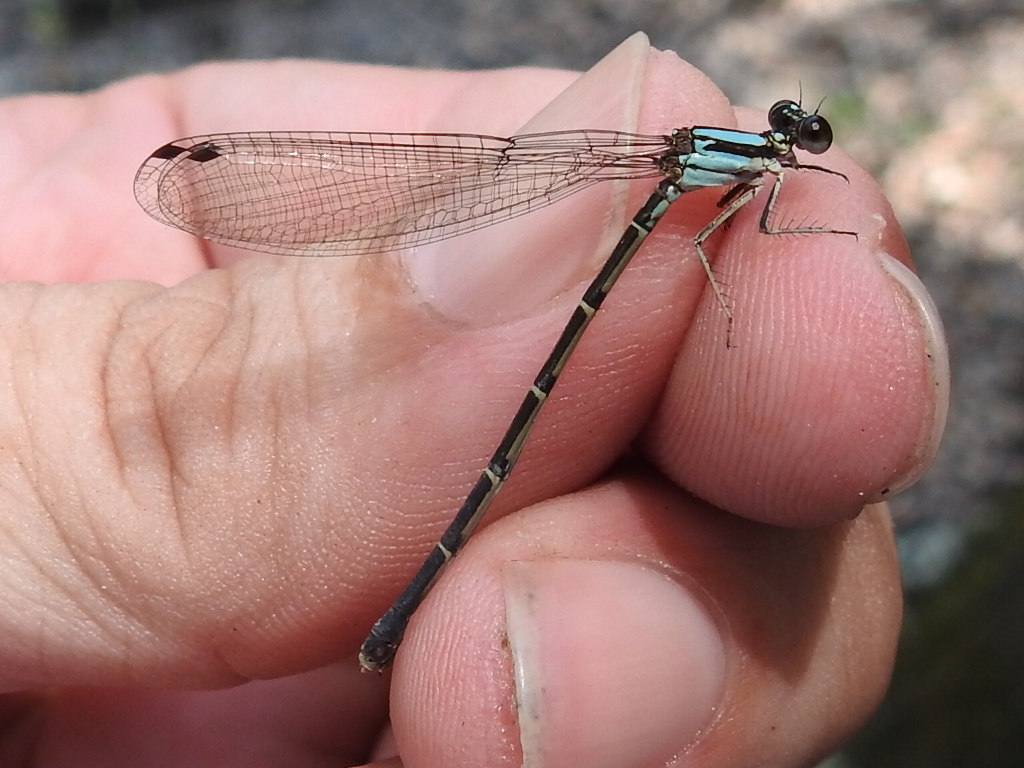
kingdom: Animalia
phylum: Arthropoda
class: Insecta
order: Odonata
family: Coenagrionidae
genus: Argia
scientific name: Argia tibialis
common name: Blue-tipped dancer
